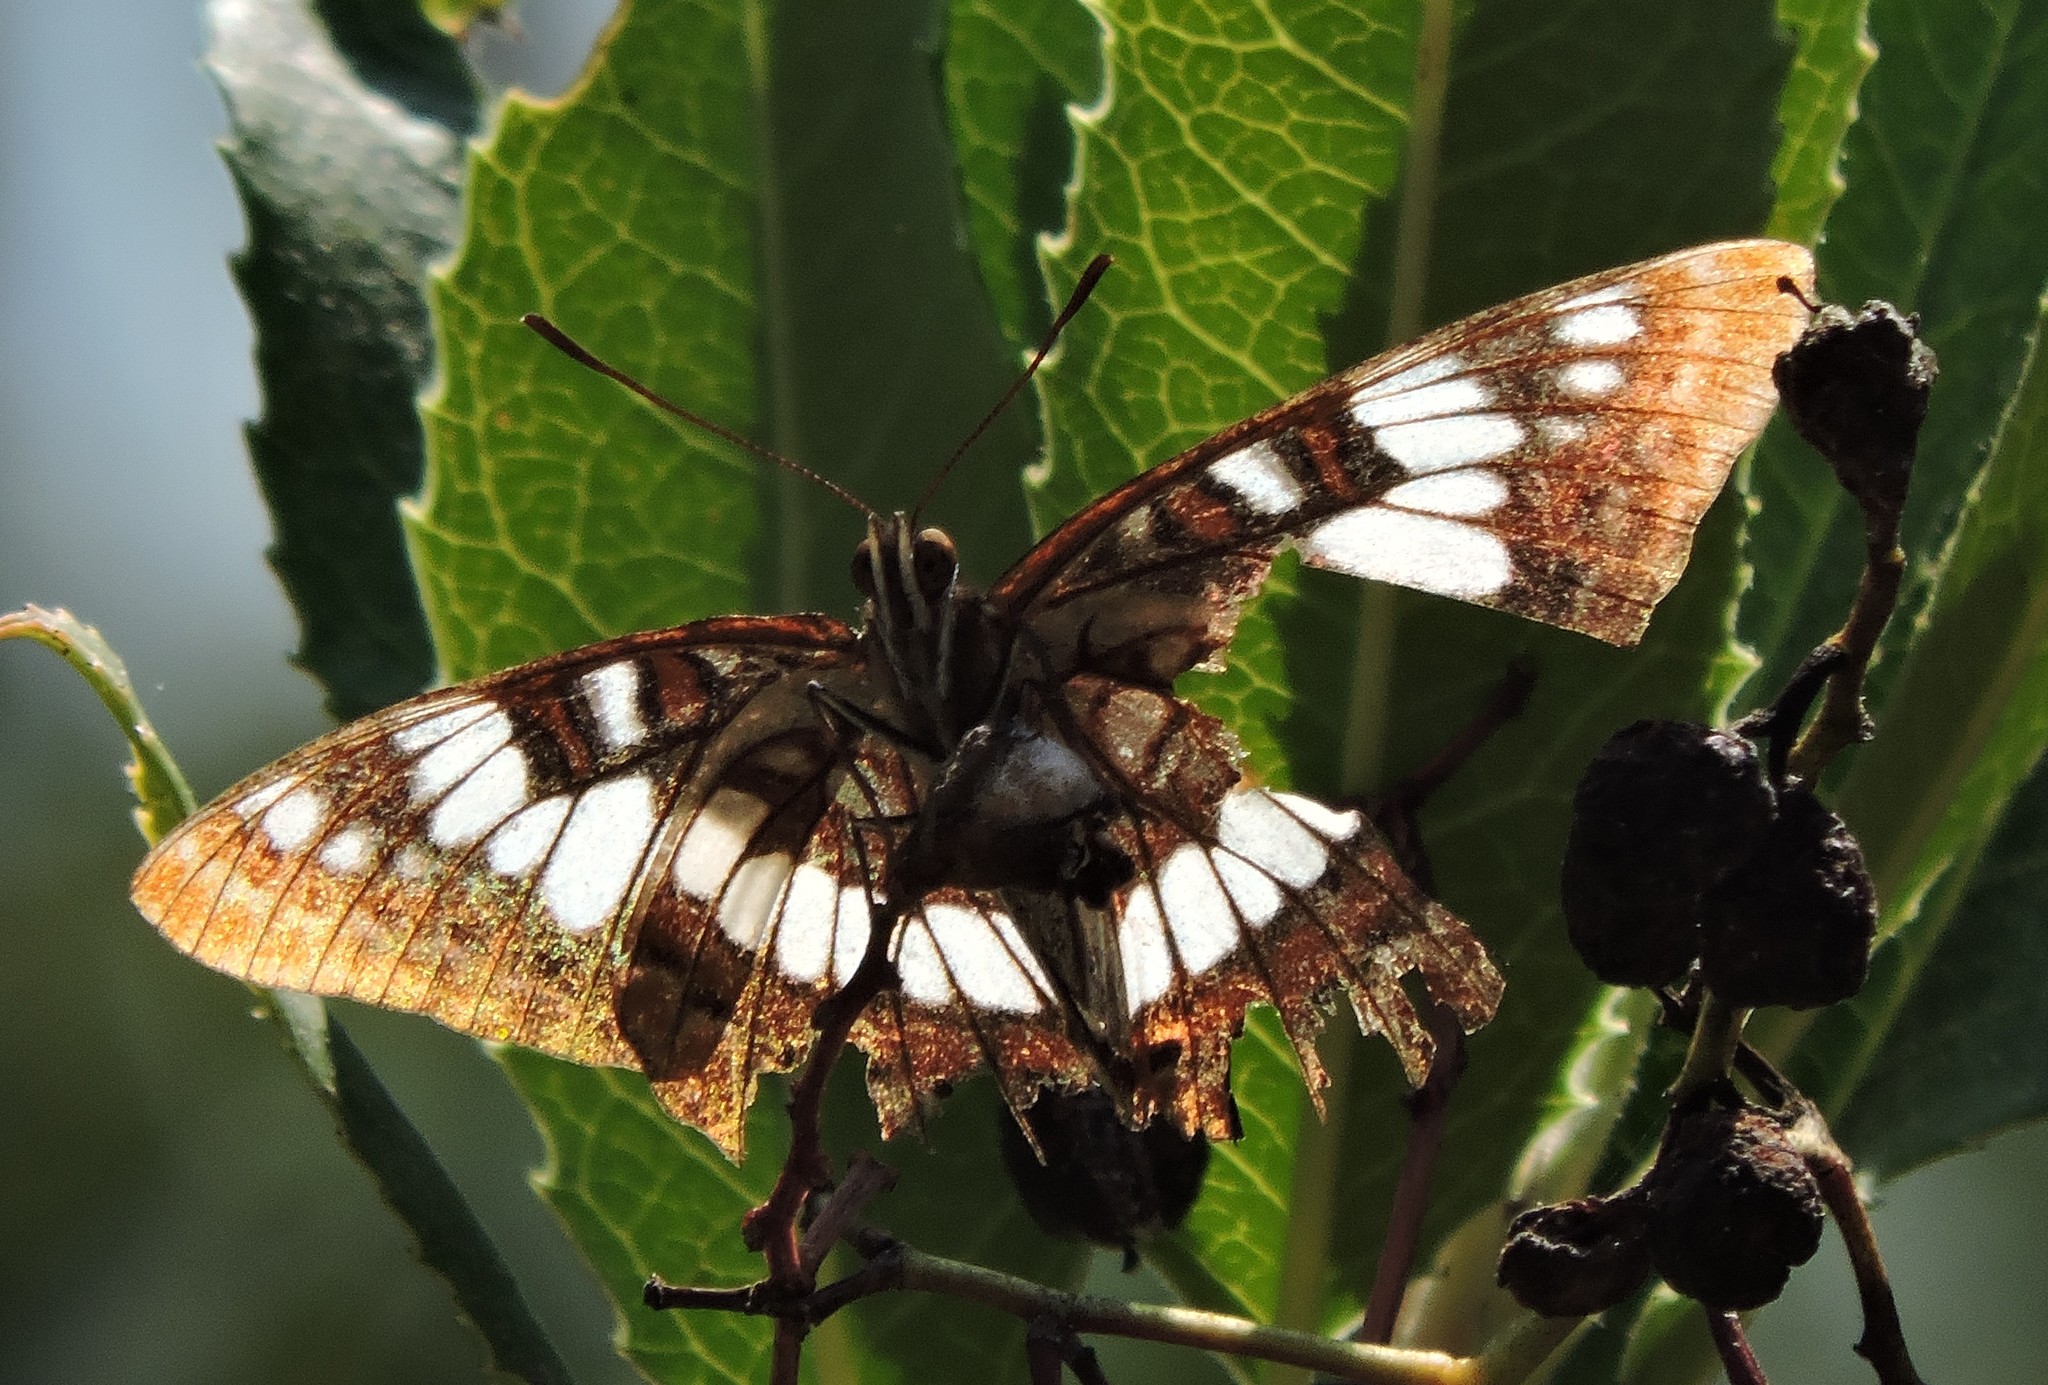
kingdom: Animalia
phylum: Arthropoda
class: Insecta
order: Lepidoptera
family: Nymphalidae
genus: Limenitis
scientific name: Limenitis lorquini
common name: Lorquin's admiral
